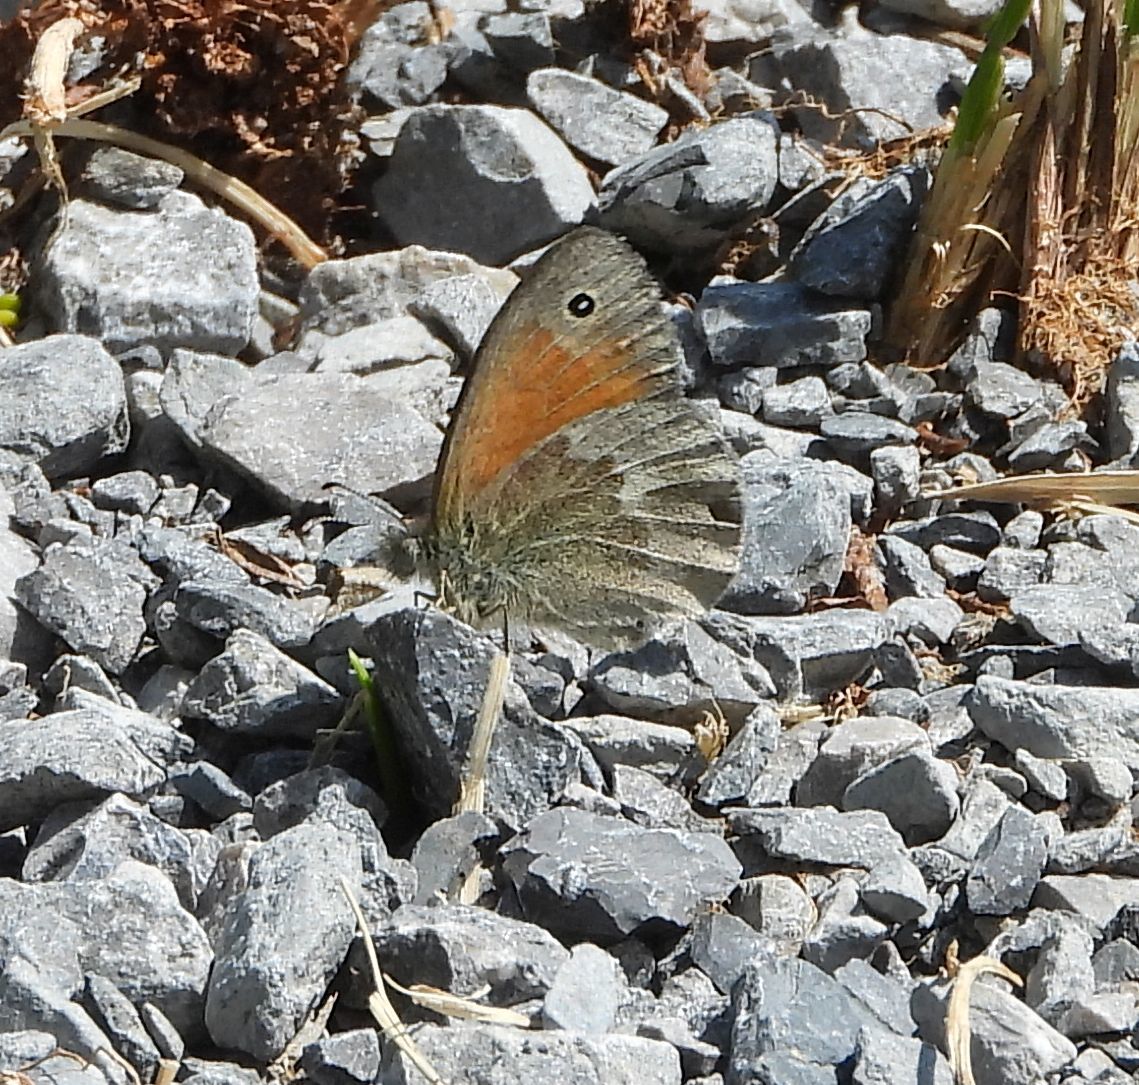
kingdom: Animalia
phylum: Arthropoda
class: Insecta
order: Lepidoptera
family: Nymphalidae
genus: Coenonympha
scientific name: Coenonympha california
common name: Common ringlet
